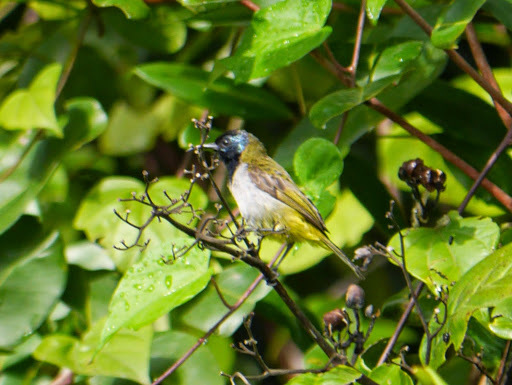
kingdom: Animalia
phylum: Chordata
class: Aves
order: Passeriformes
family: Nectariniidae
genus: Anabathmis
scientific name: Anabathmis reichenbachii
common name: Reichenbach's sunbird
